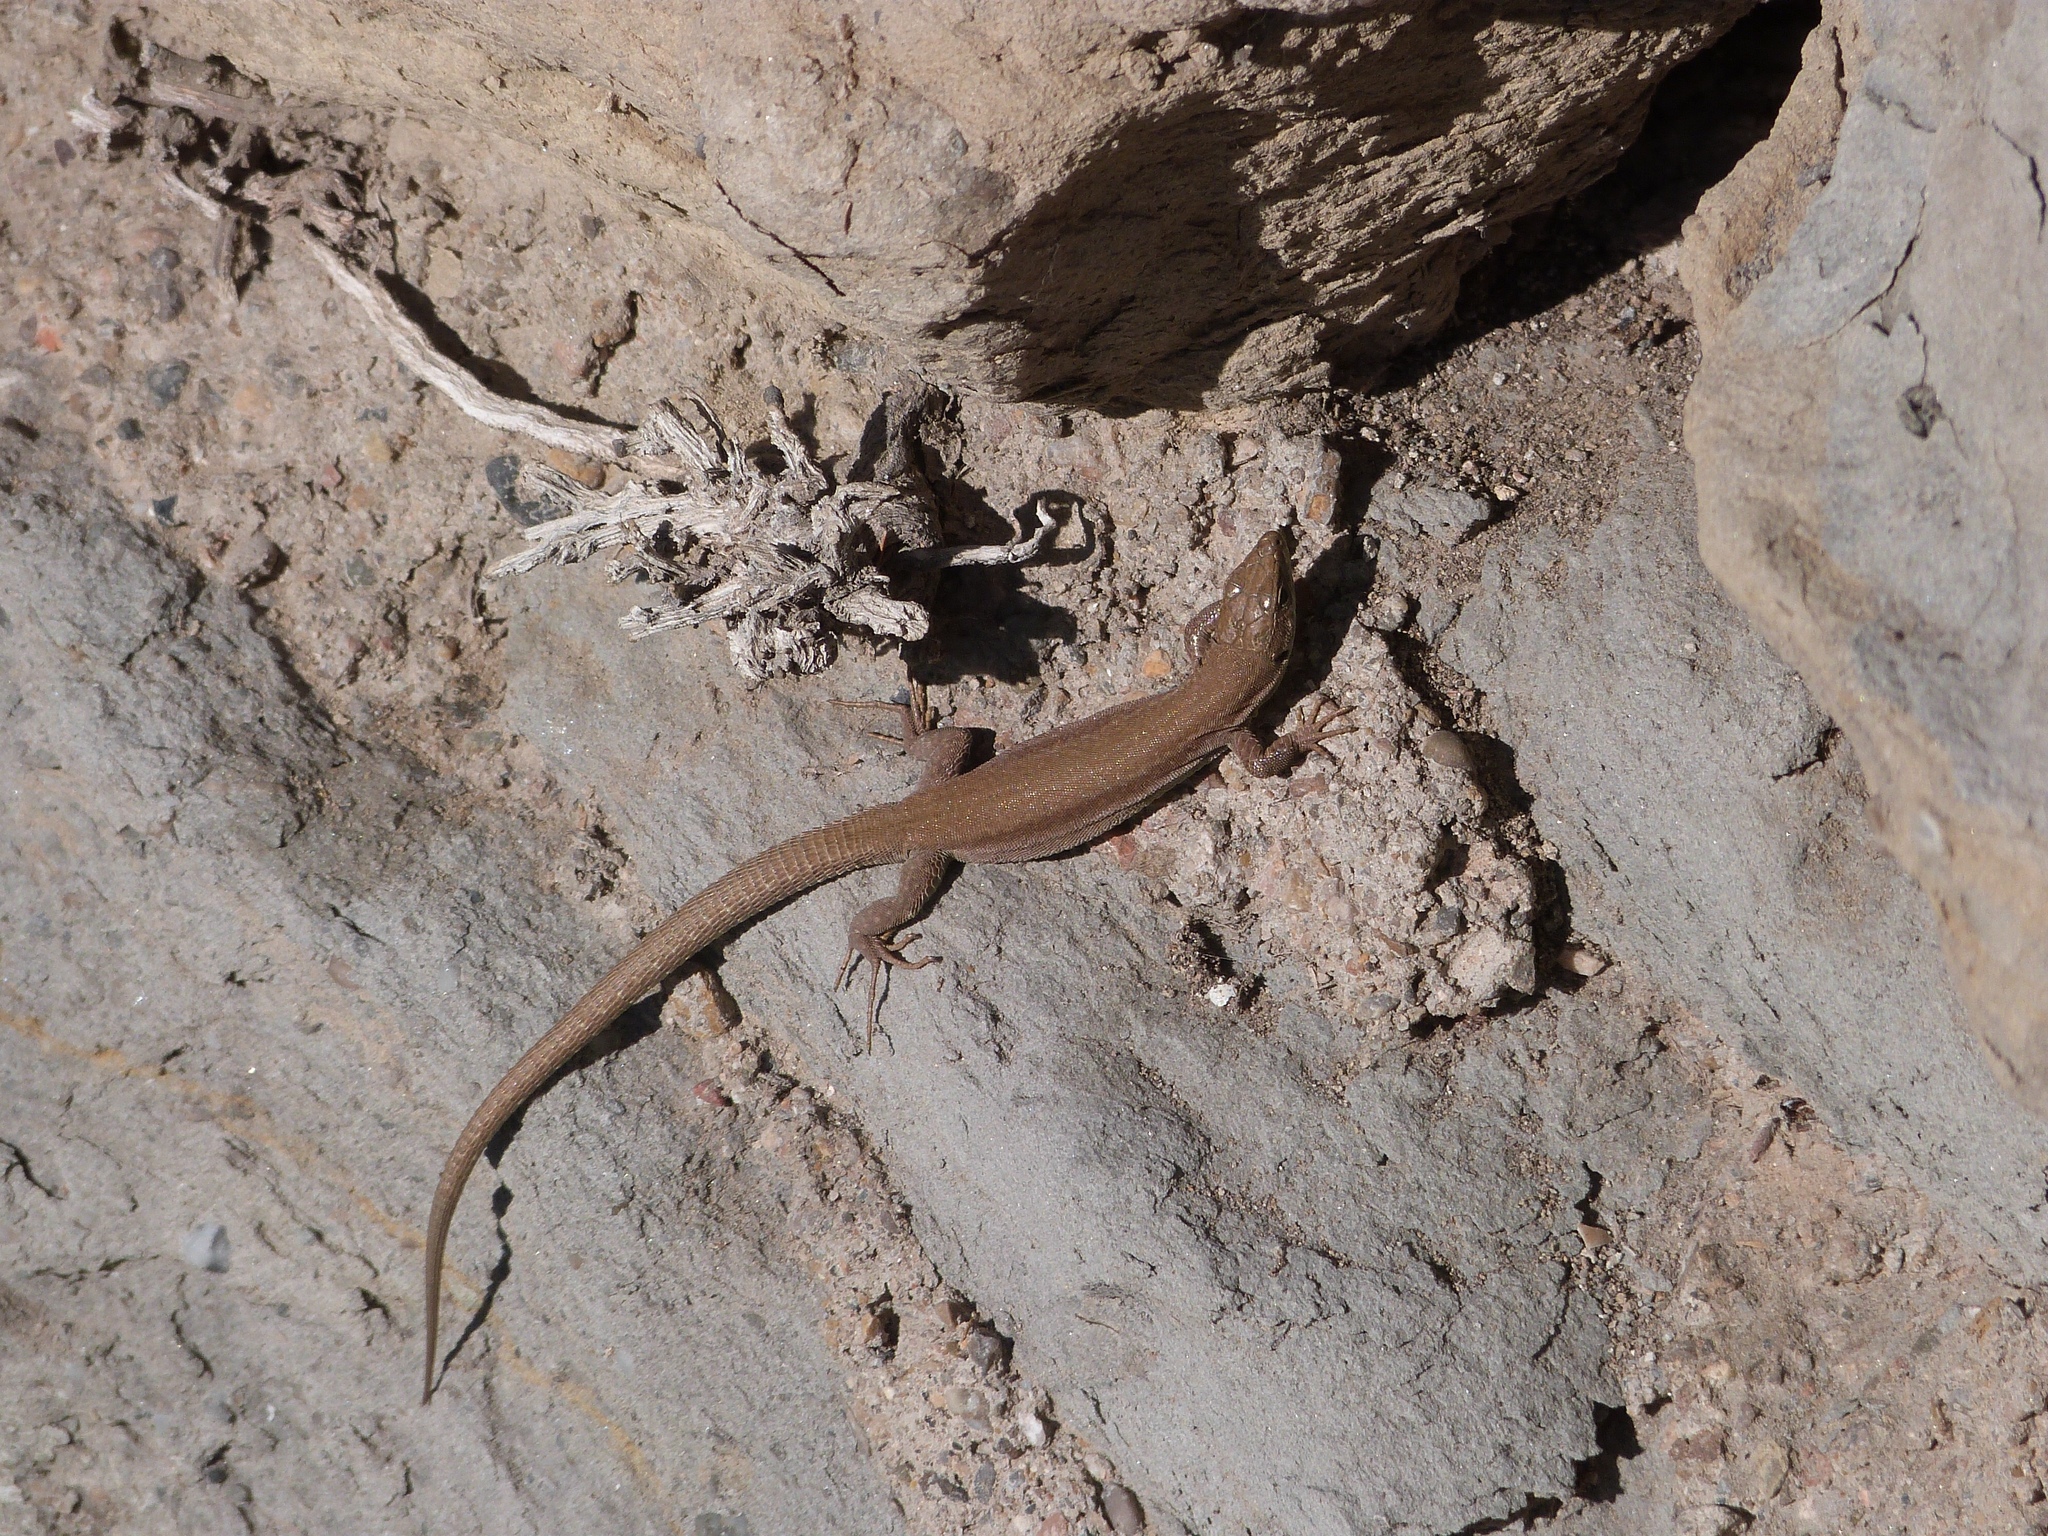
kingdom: Animalia
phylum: Chordata
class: Squamata
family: Lacertidae
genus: Podarcis
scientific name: Podarcis liolepis
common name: Catalonian wall lizard
